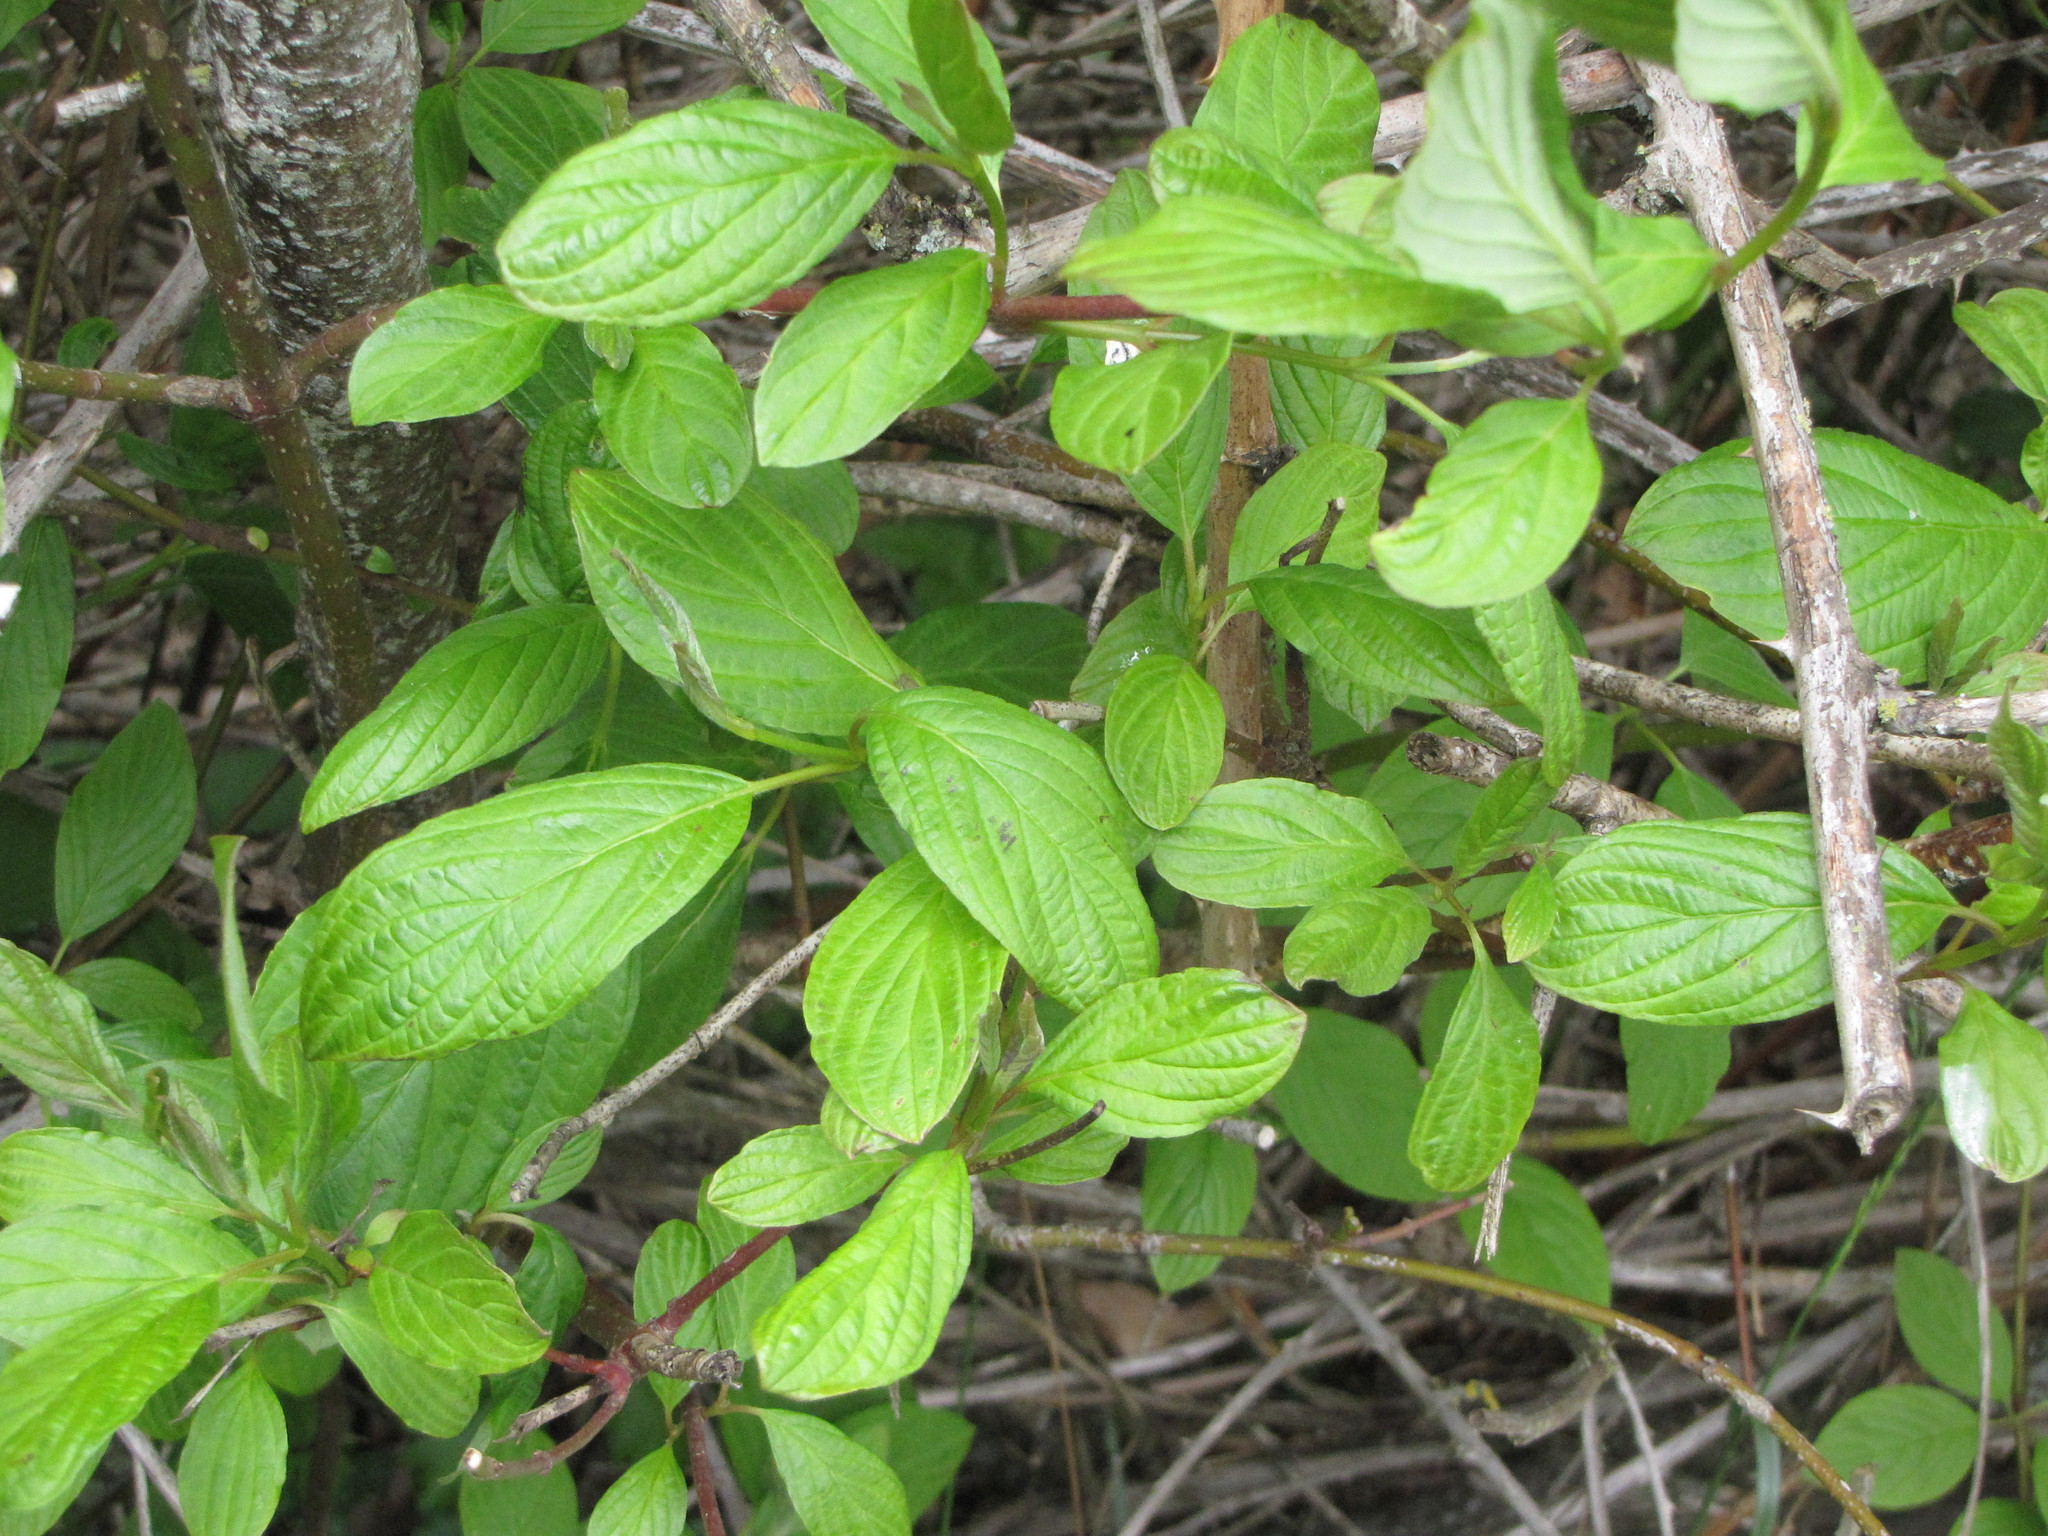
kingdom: Plantae
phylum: Tracheophyta
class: Magnoliopsida
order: Cornales
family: Cornaceae
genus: Cornus
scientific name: Cornus sericea
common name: Red-osier dogwood
